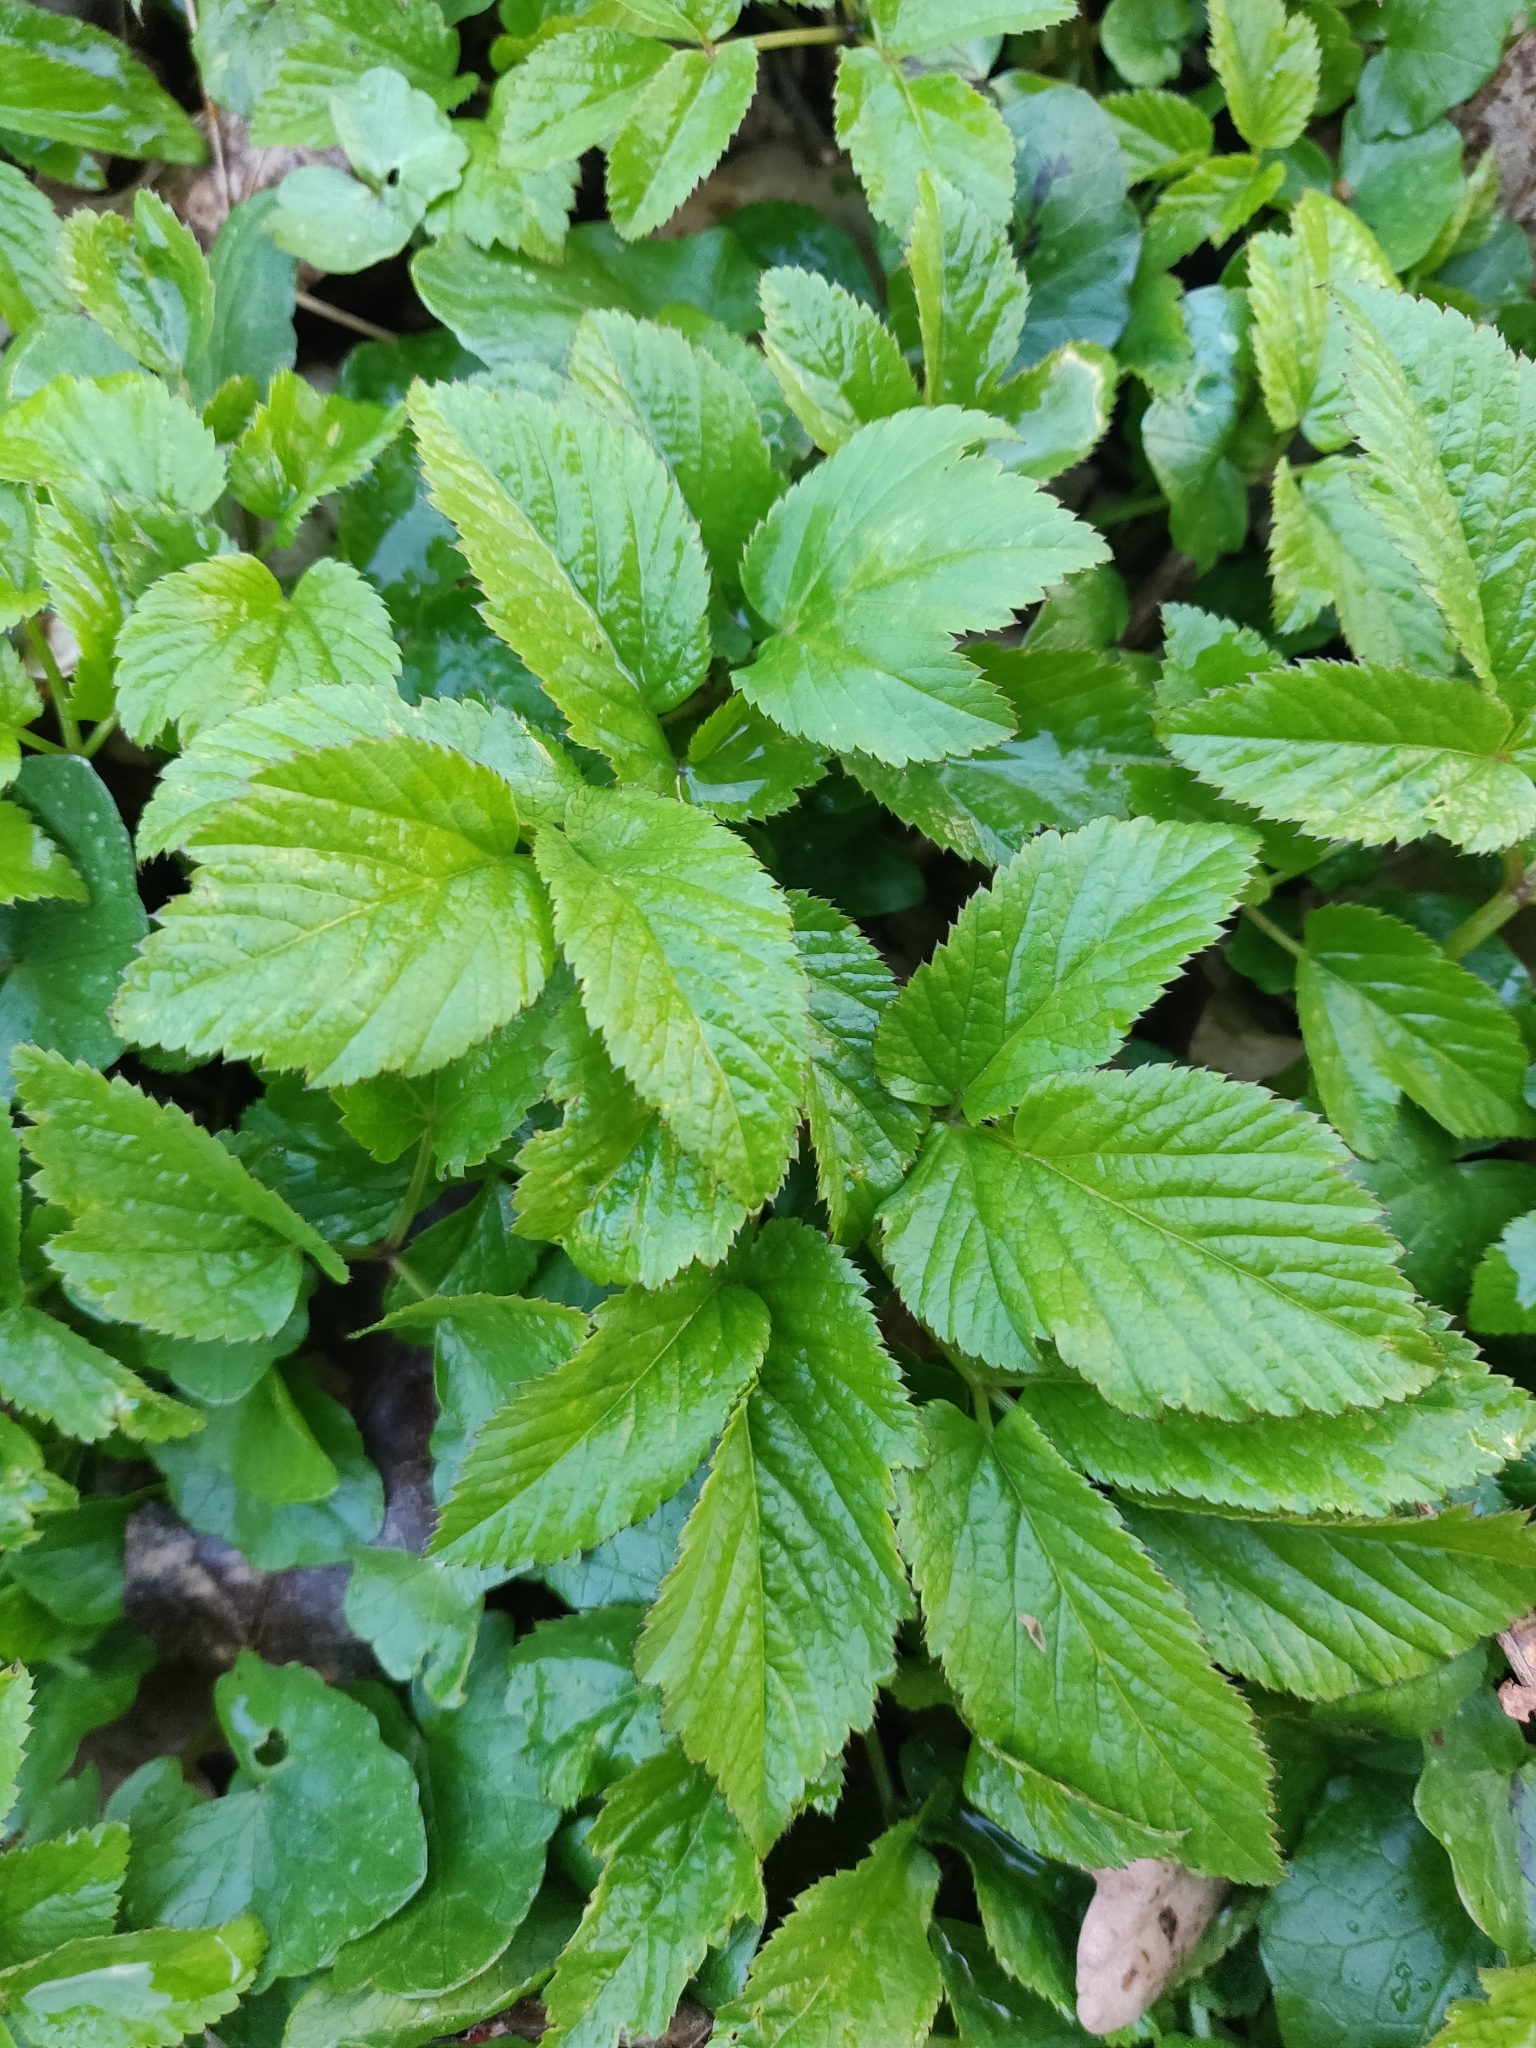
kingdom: Plantae
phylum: Tracheophyta
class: Magnoliopsida
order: Apiales
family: Apiaceae
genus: Aegopodium
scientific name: Aegopodium podagraria
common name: Ground-elder
